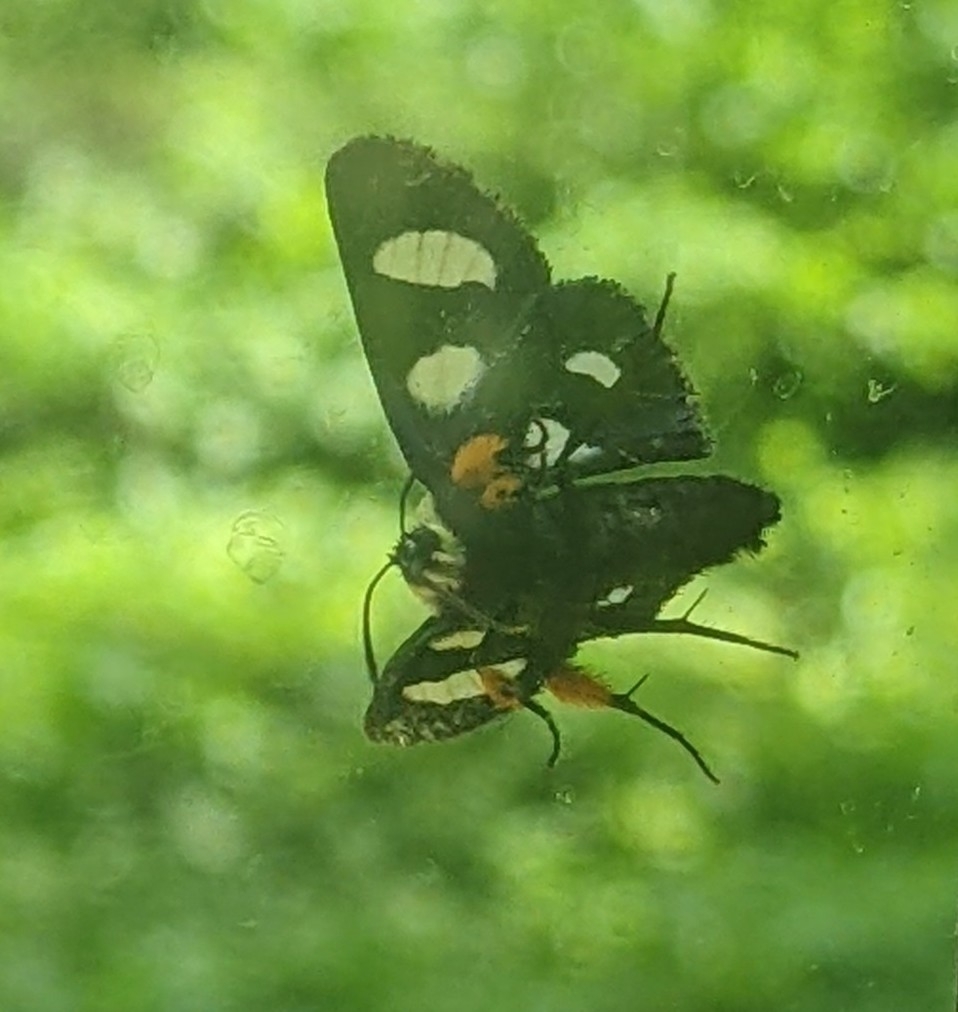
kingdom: Animalia
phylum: Arthropoda
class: Insecta
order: Lepidoptera
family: Noctuidae
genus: Alypia
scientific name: Alypia octomaculata
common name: Eight-spotted forester
